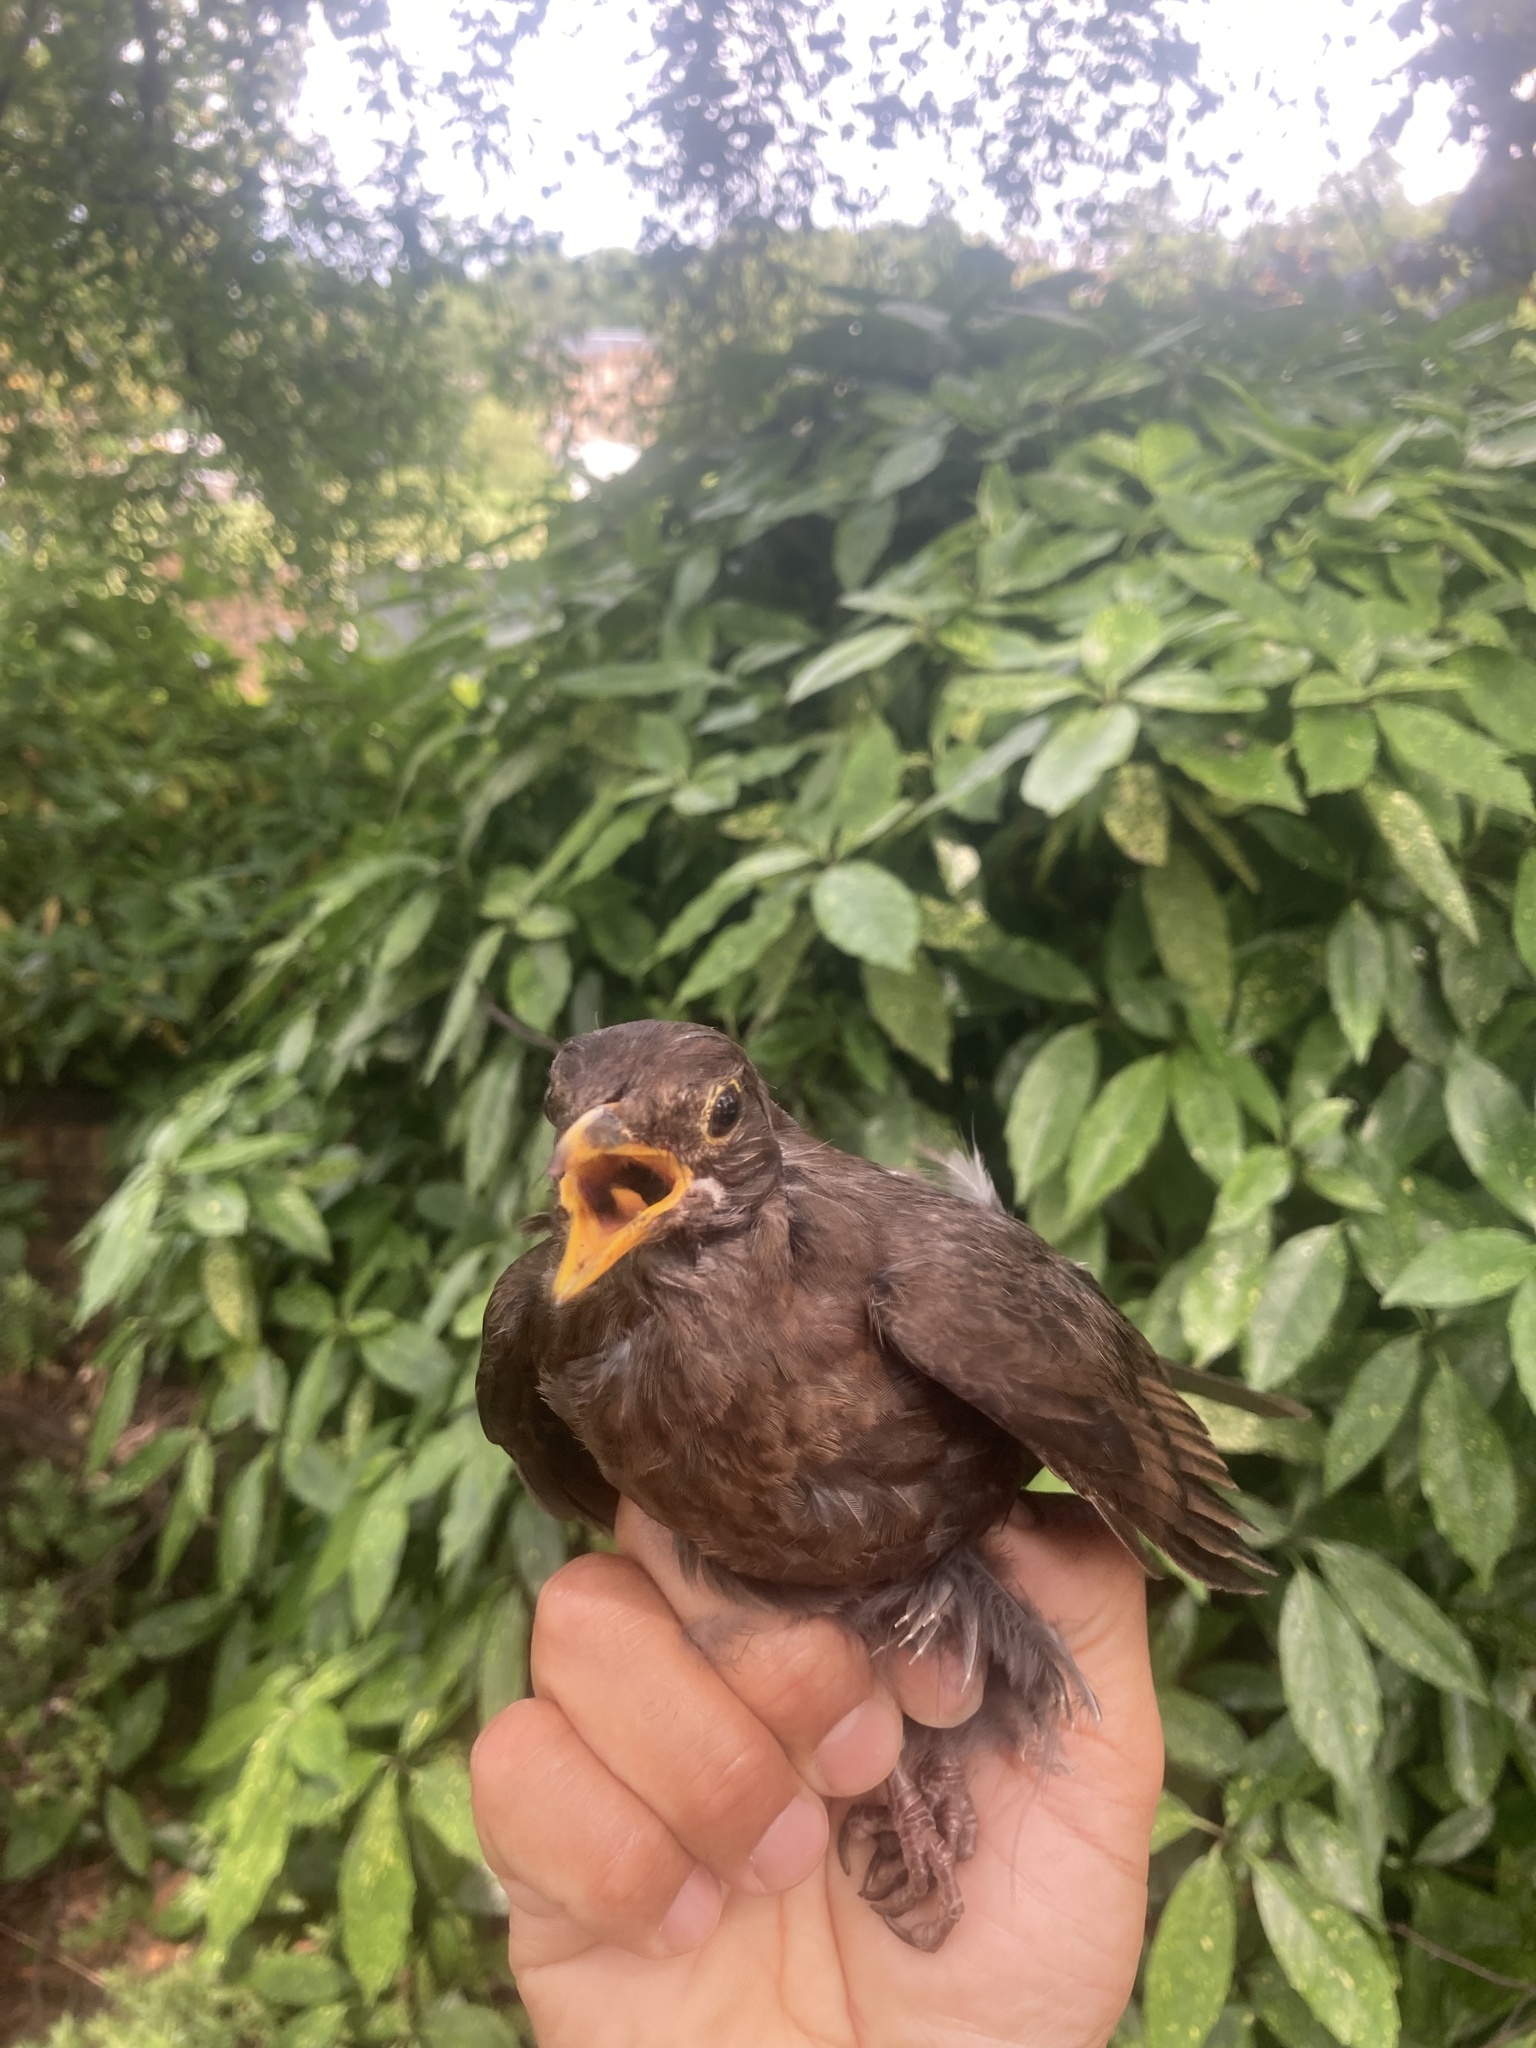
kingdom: Animalia
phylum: Chordata
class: Aves
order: Passeriformes
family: Turdidae
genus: Turdus
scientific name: Turdus merula
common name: Common blackbird
